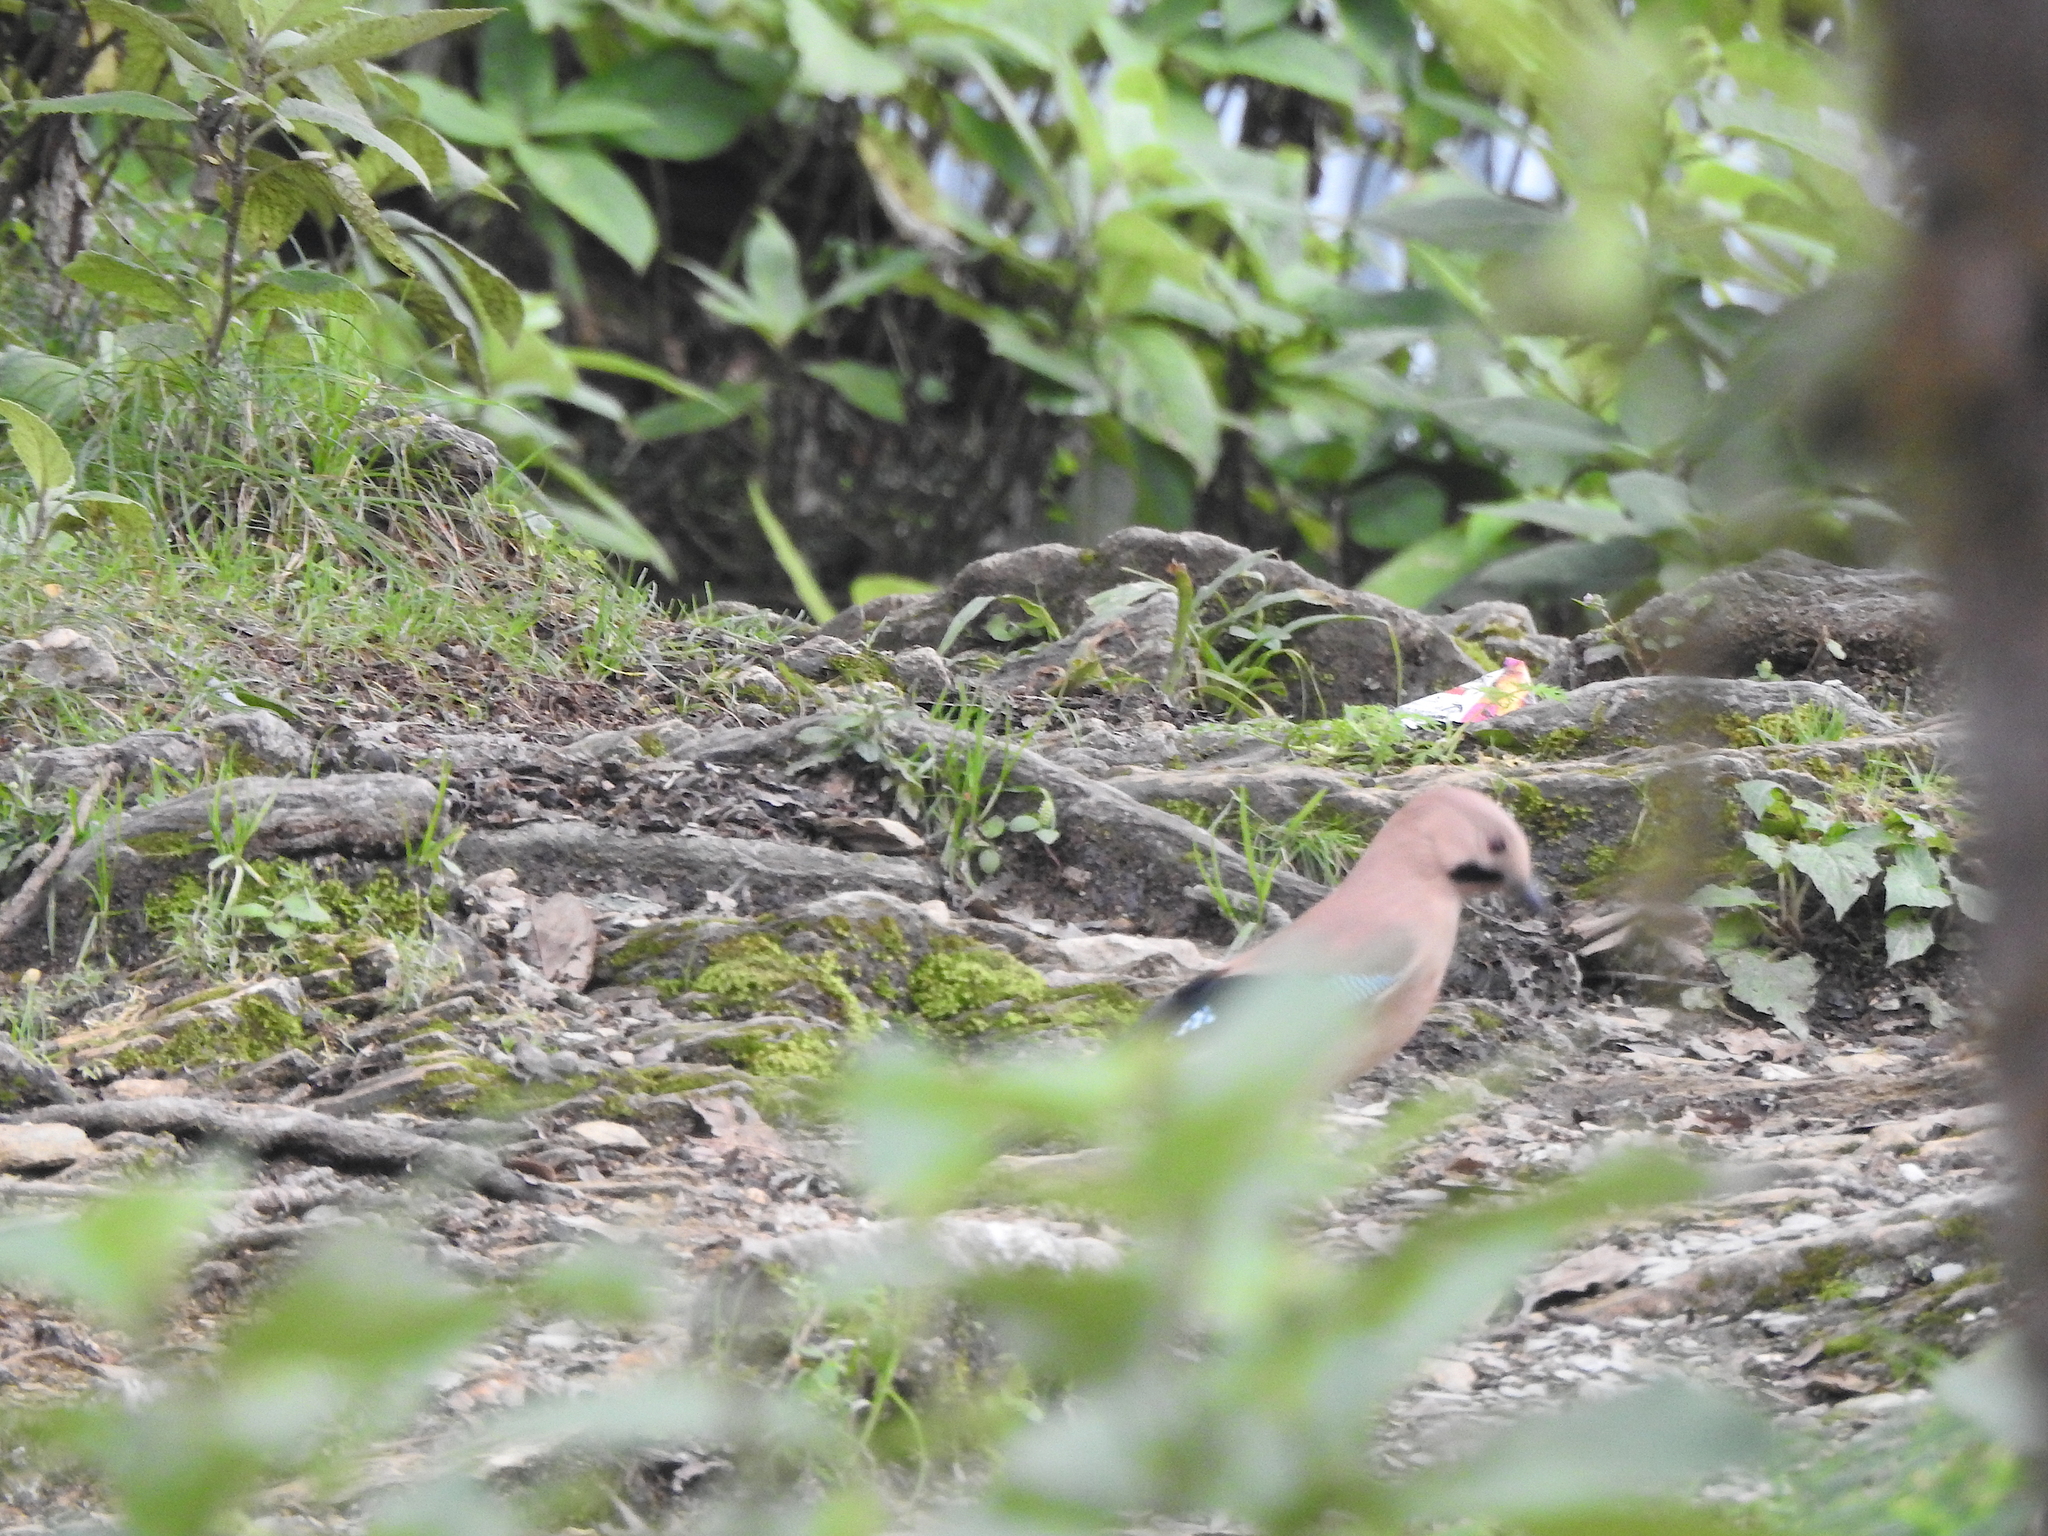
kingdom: Animalia
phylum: Chordata
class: Aves
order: Passeriformes
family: Corvidae
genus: Garrulus
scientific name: Garrulus glandarius
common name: Eurasian jay
